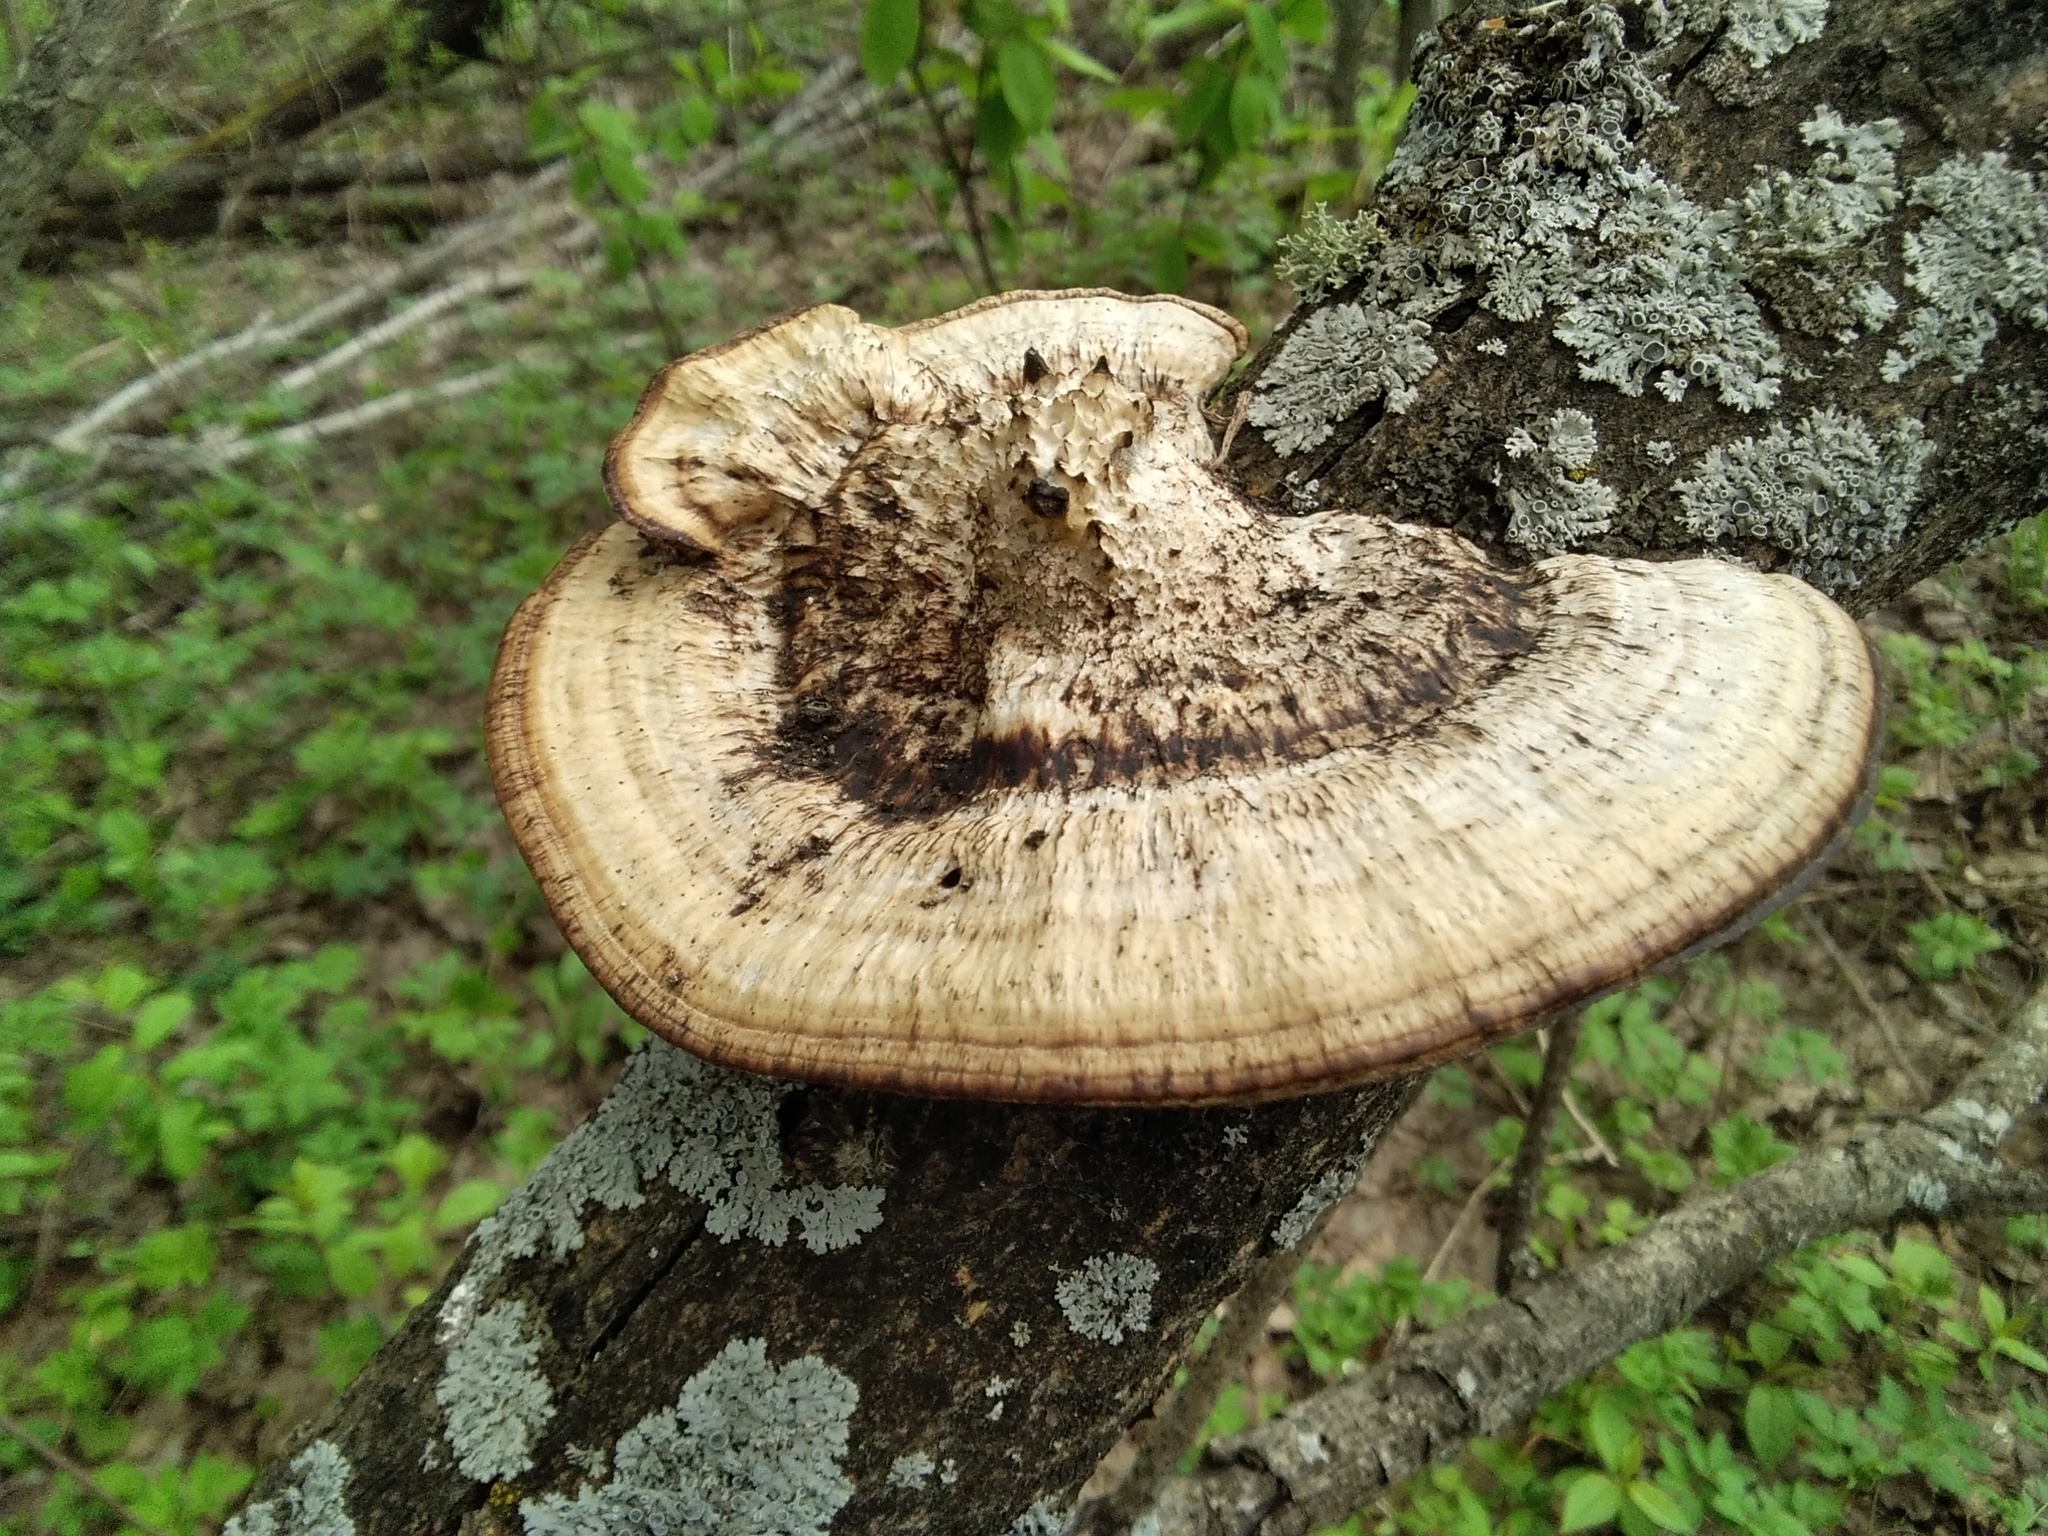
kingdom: Fungi
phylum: Basidiomycota
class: Agaricomycetes
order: Polyporales
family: Polyporaceae
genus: Daedaleopsis
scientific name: Daedaleopsis confragosa
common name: Blushing bracket
